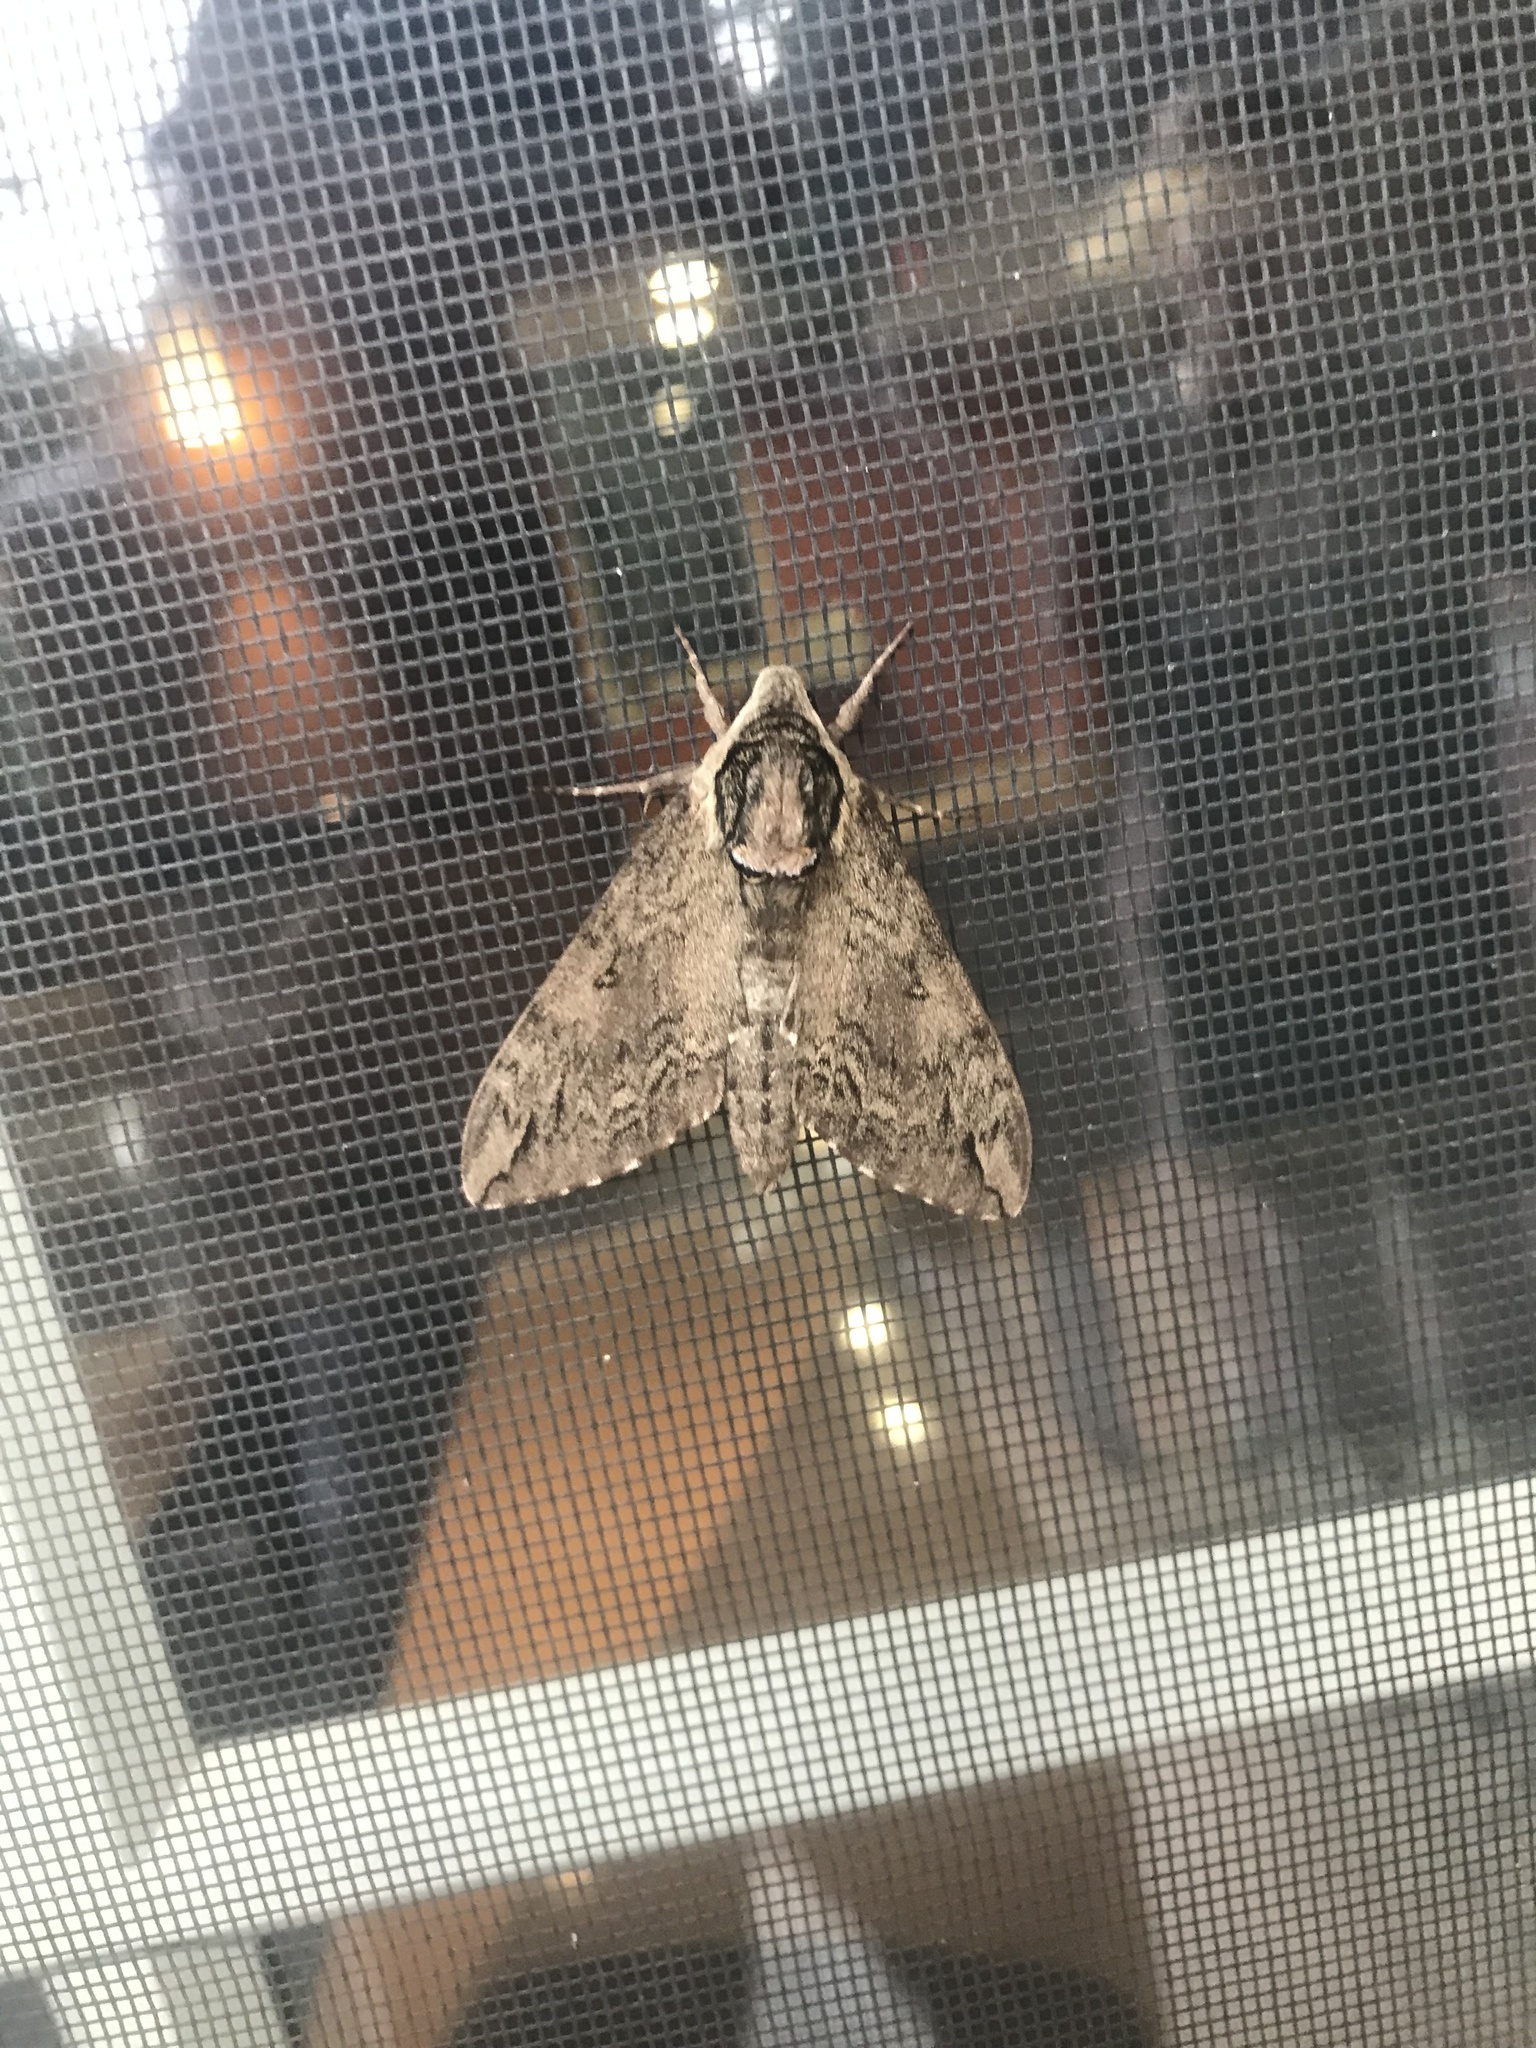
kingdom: Animalia
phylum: Arthropoda
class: Insecta
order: Lepidoptera
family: Sphingidae
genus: Ceratomia
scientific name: Ceratomia catalpae
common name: Catalpa hornworm
